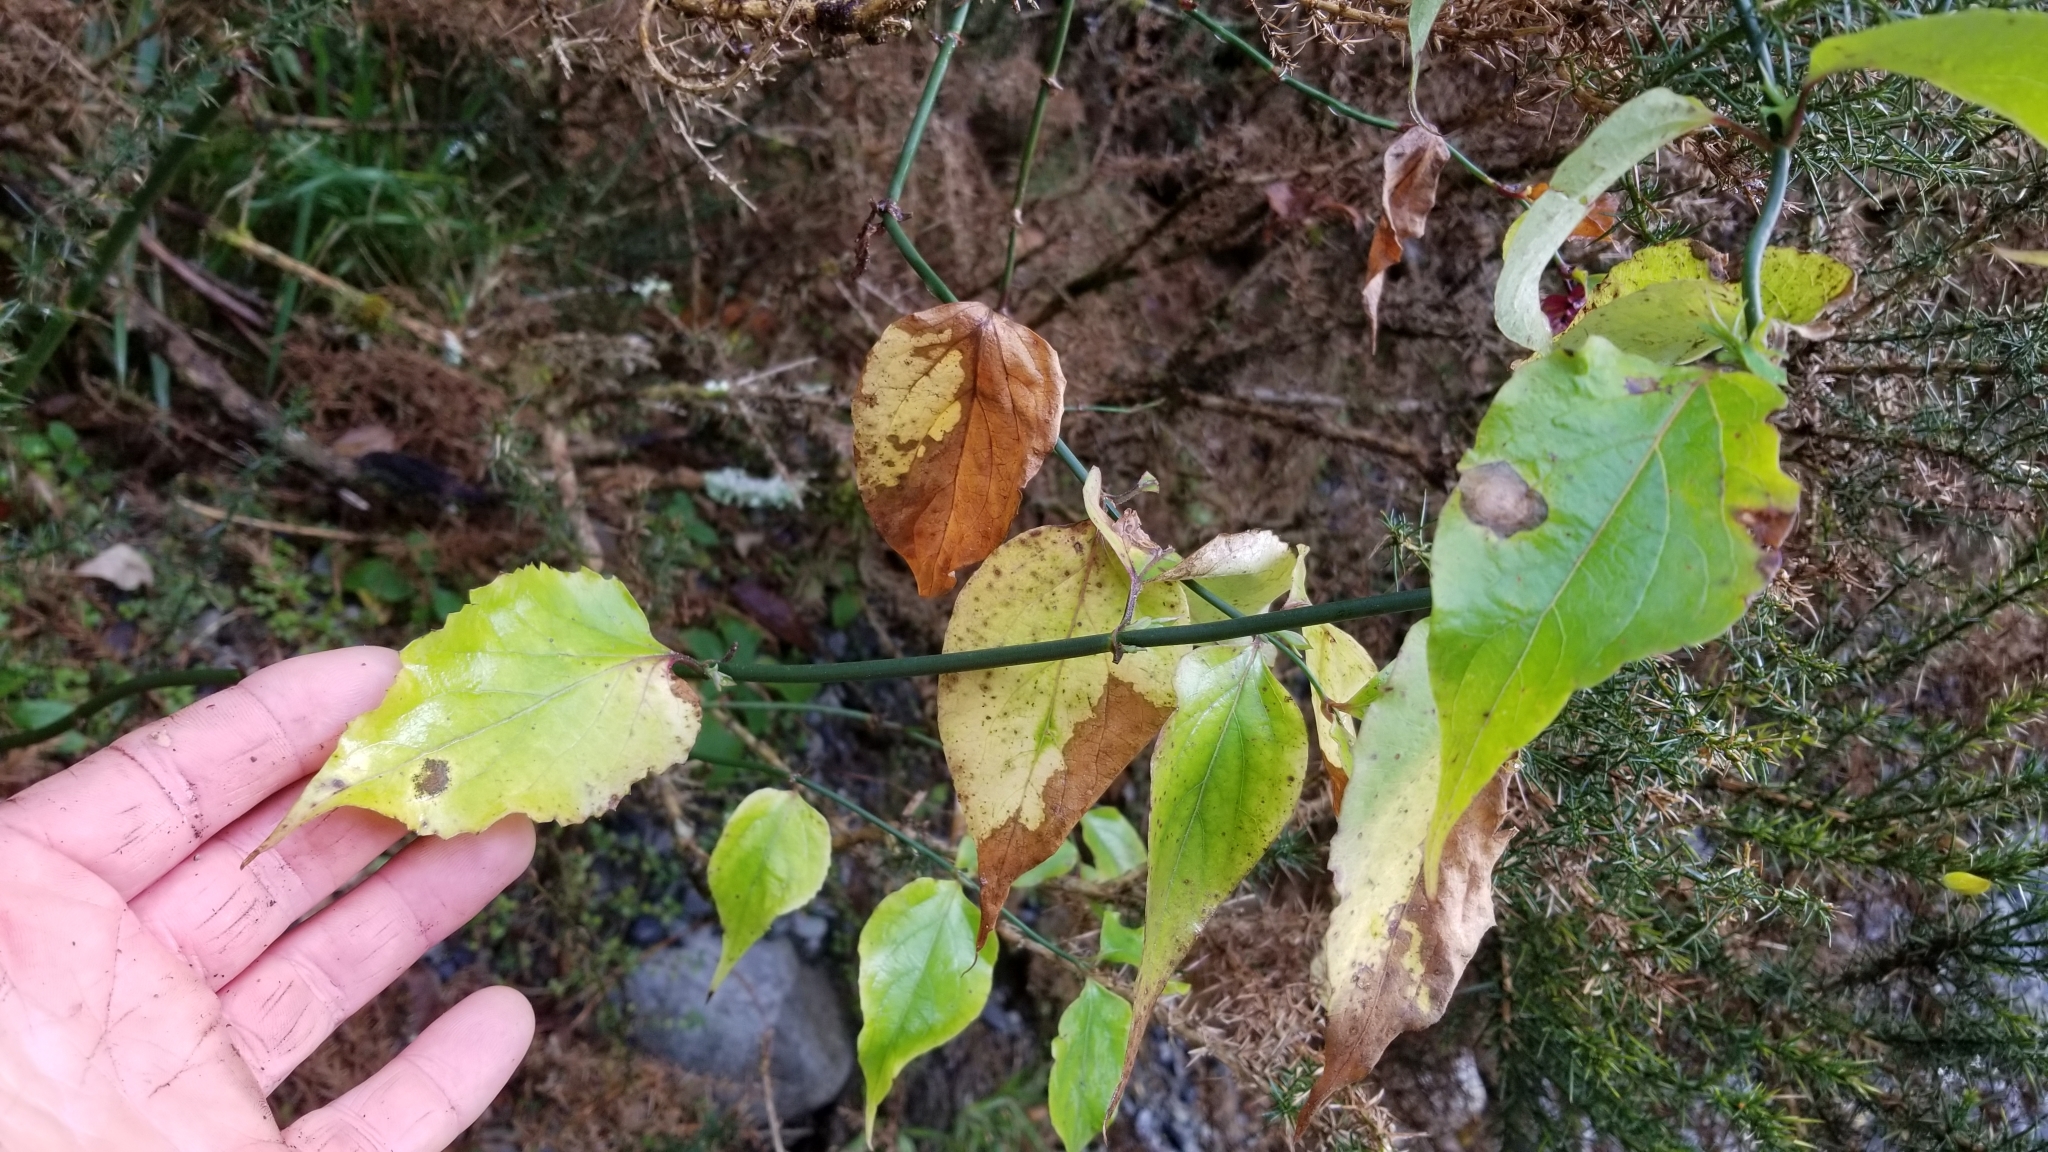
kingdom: Plantae
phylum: Tracheophyta
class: Magnoliopsida
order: Dipsacales
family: Caprifoliaceae
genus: Leycesteria
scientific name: Leycesteria formosa
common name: Himalayan honeysuckle
